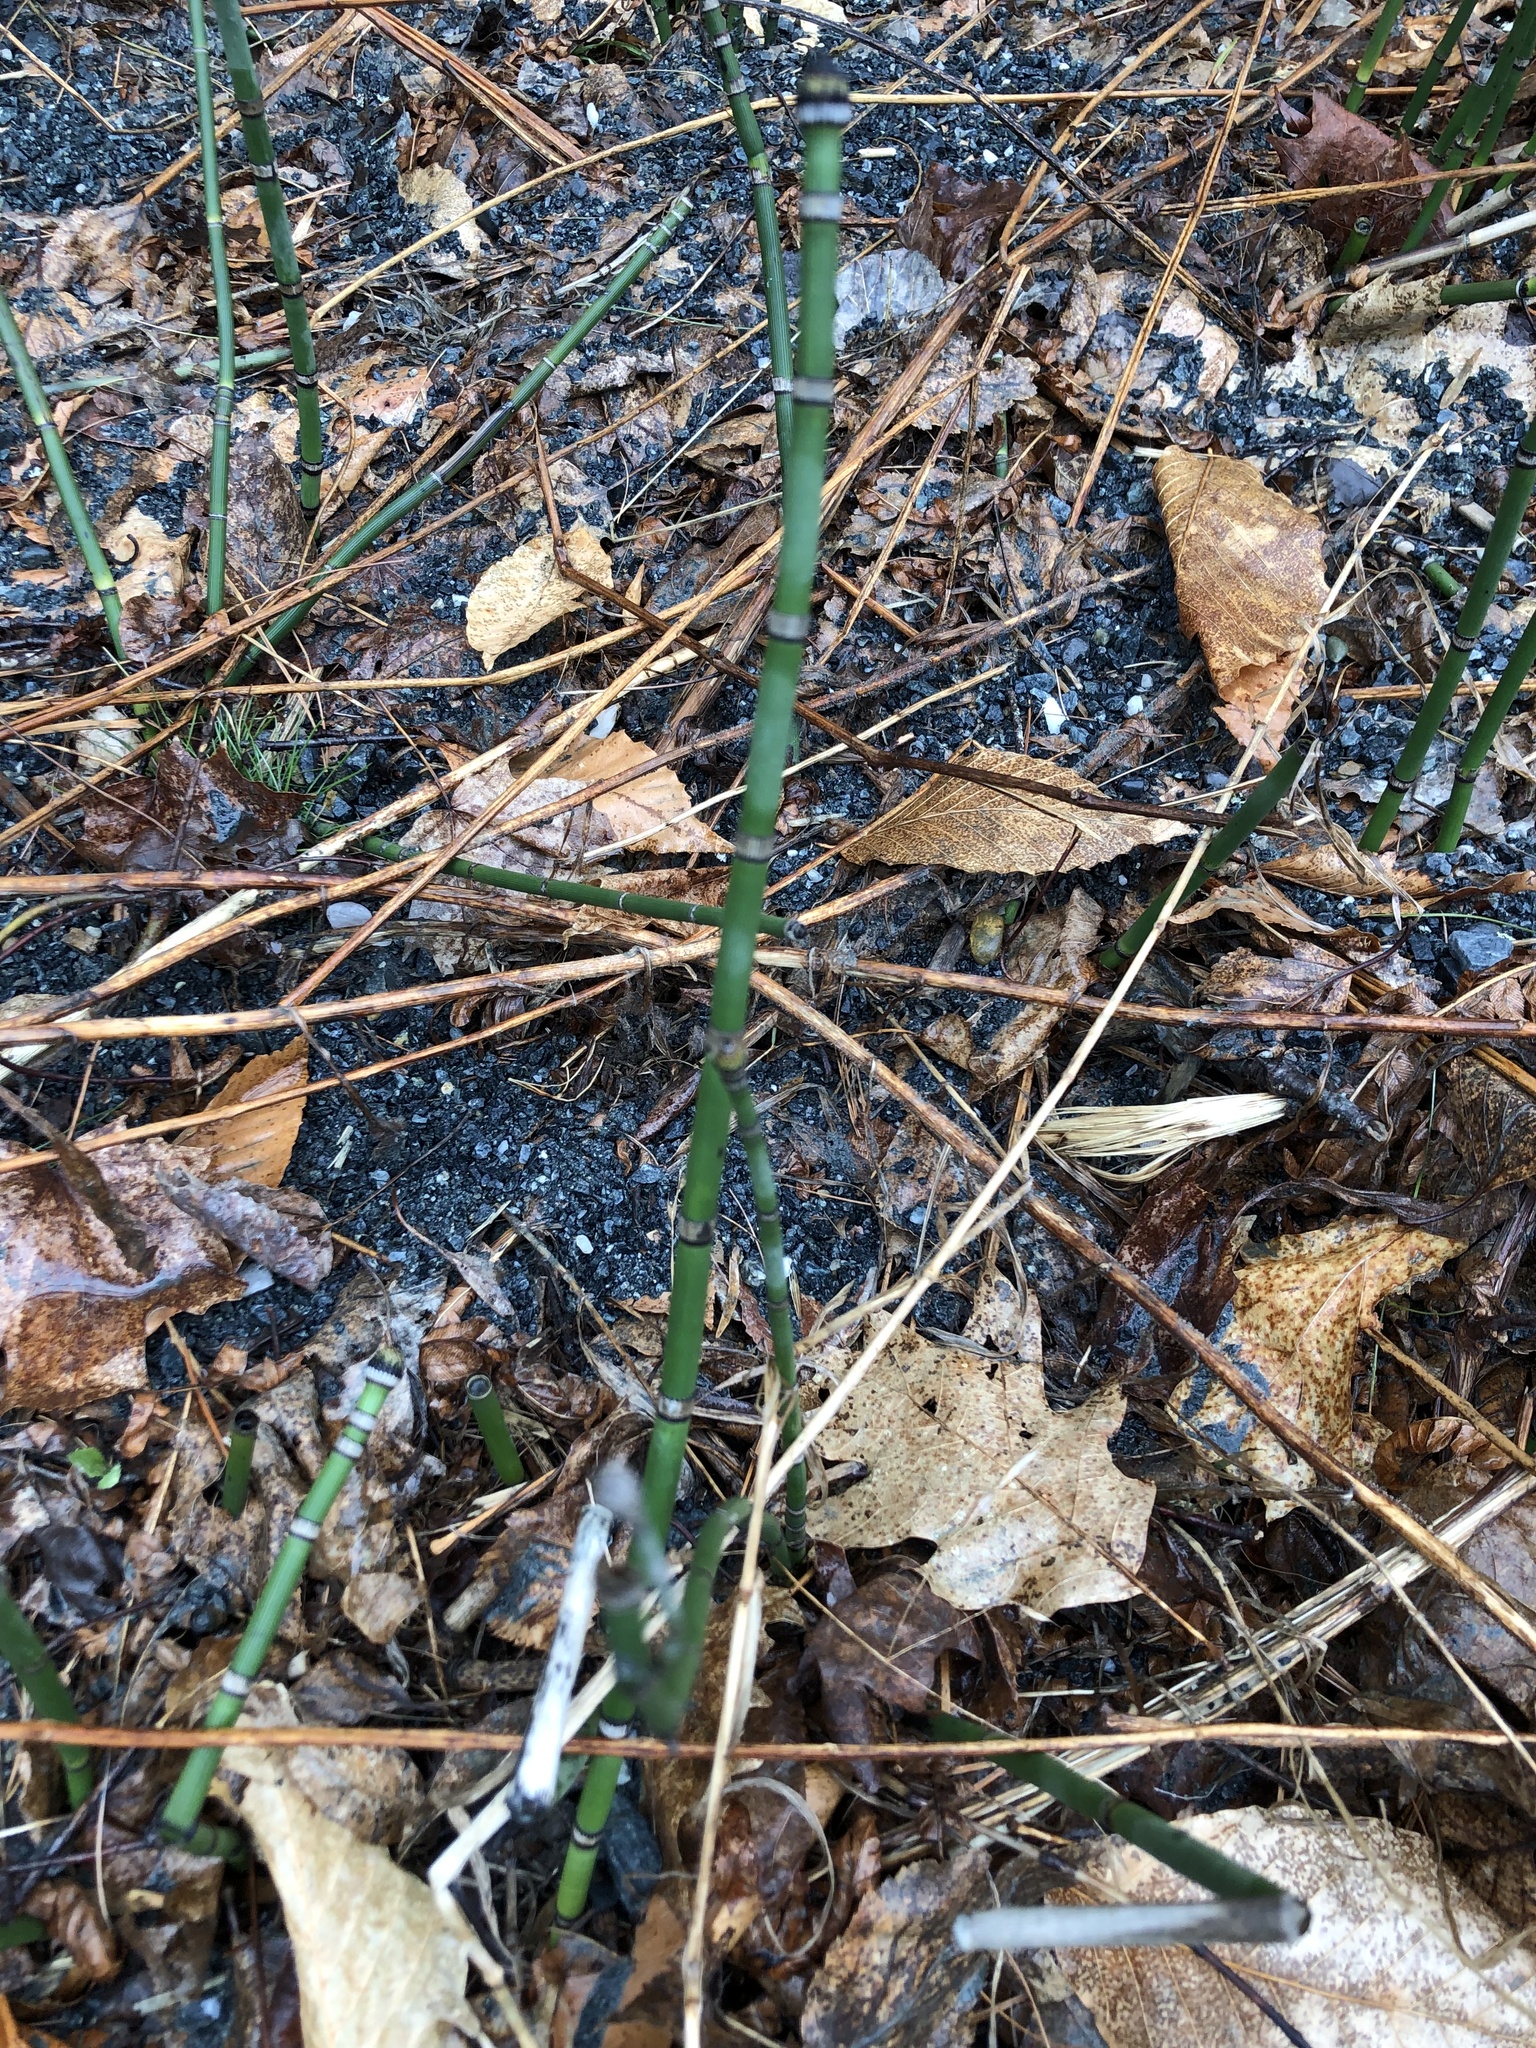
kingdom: Plantae
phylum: Tracheophyta
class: Polypodiopsida
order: Equisetales
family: Equisetaceae
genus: Equisetum
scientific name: Equisetum hyemale
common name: Rough horsetail
